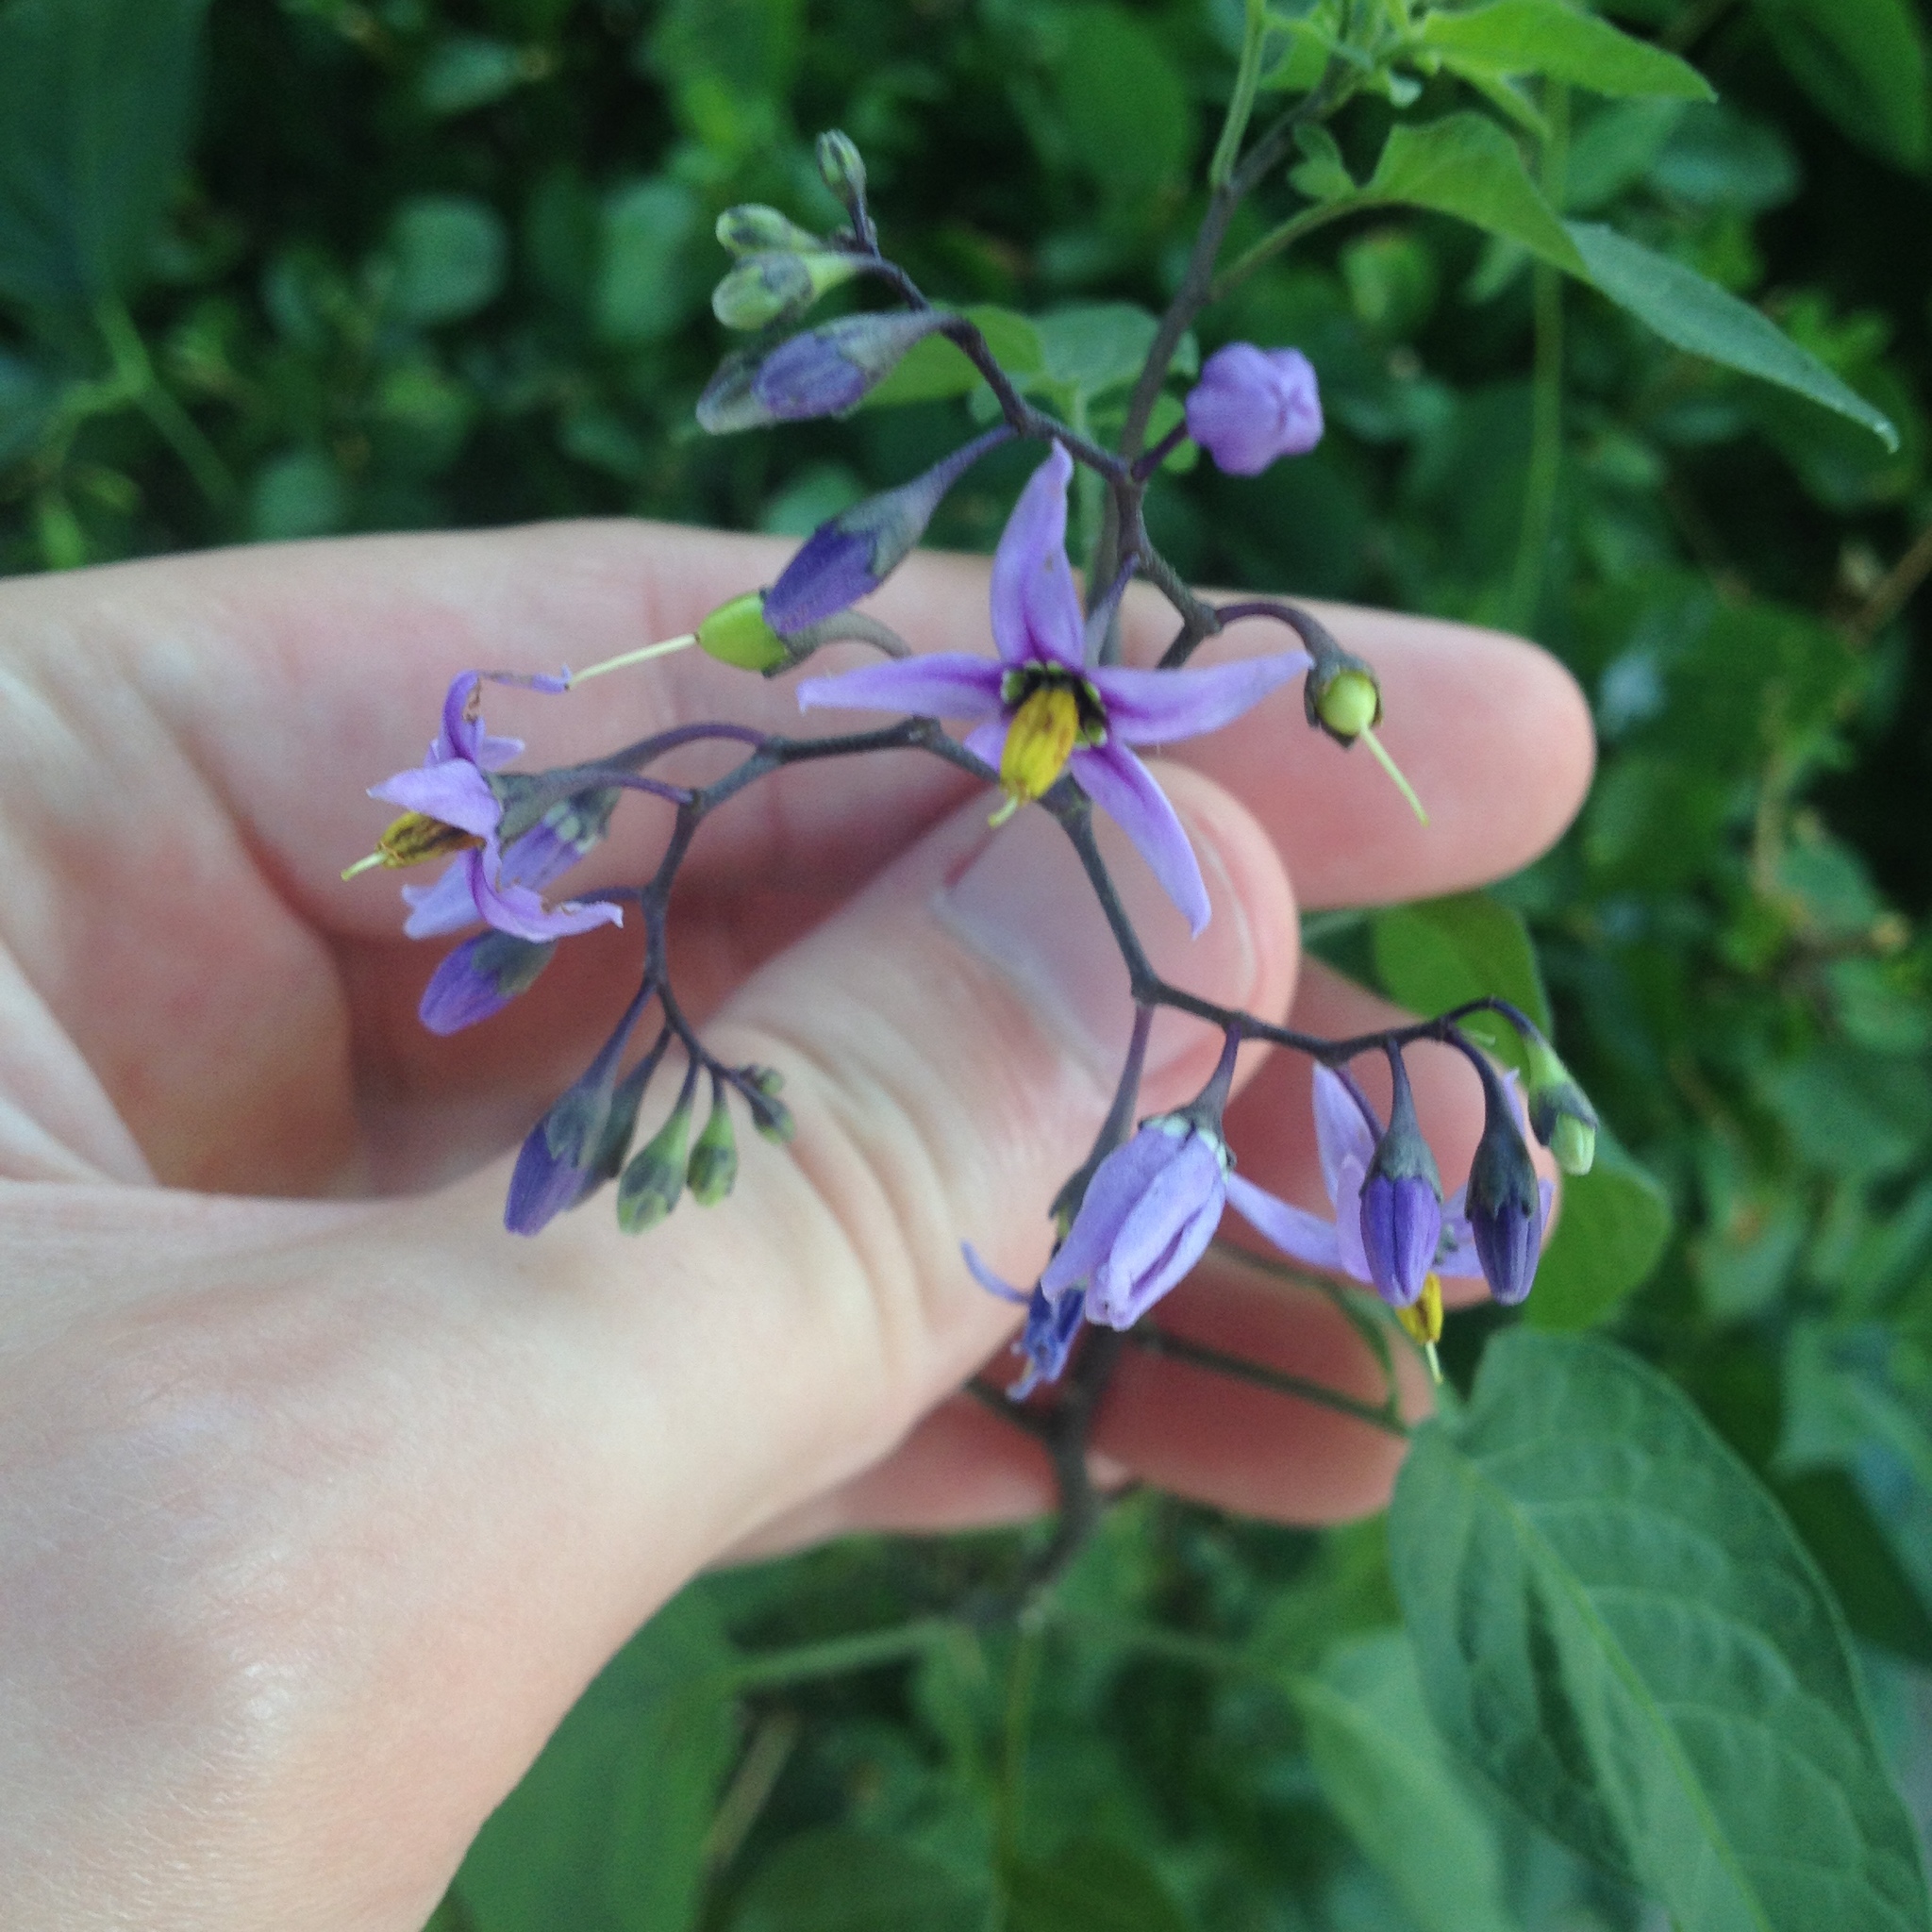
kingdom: Plantae
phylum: Tracheophyta
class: Magnoliopsida
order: Solanales
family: Solanaceae
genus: Solanum
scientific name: Solanum dulcamara
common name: Climbing nightshade
